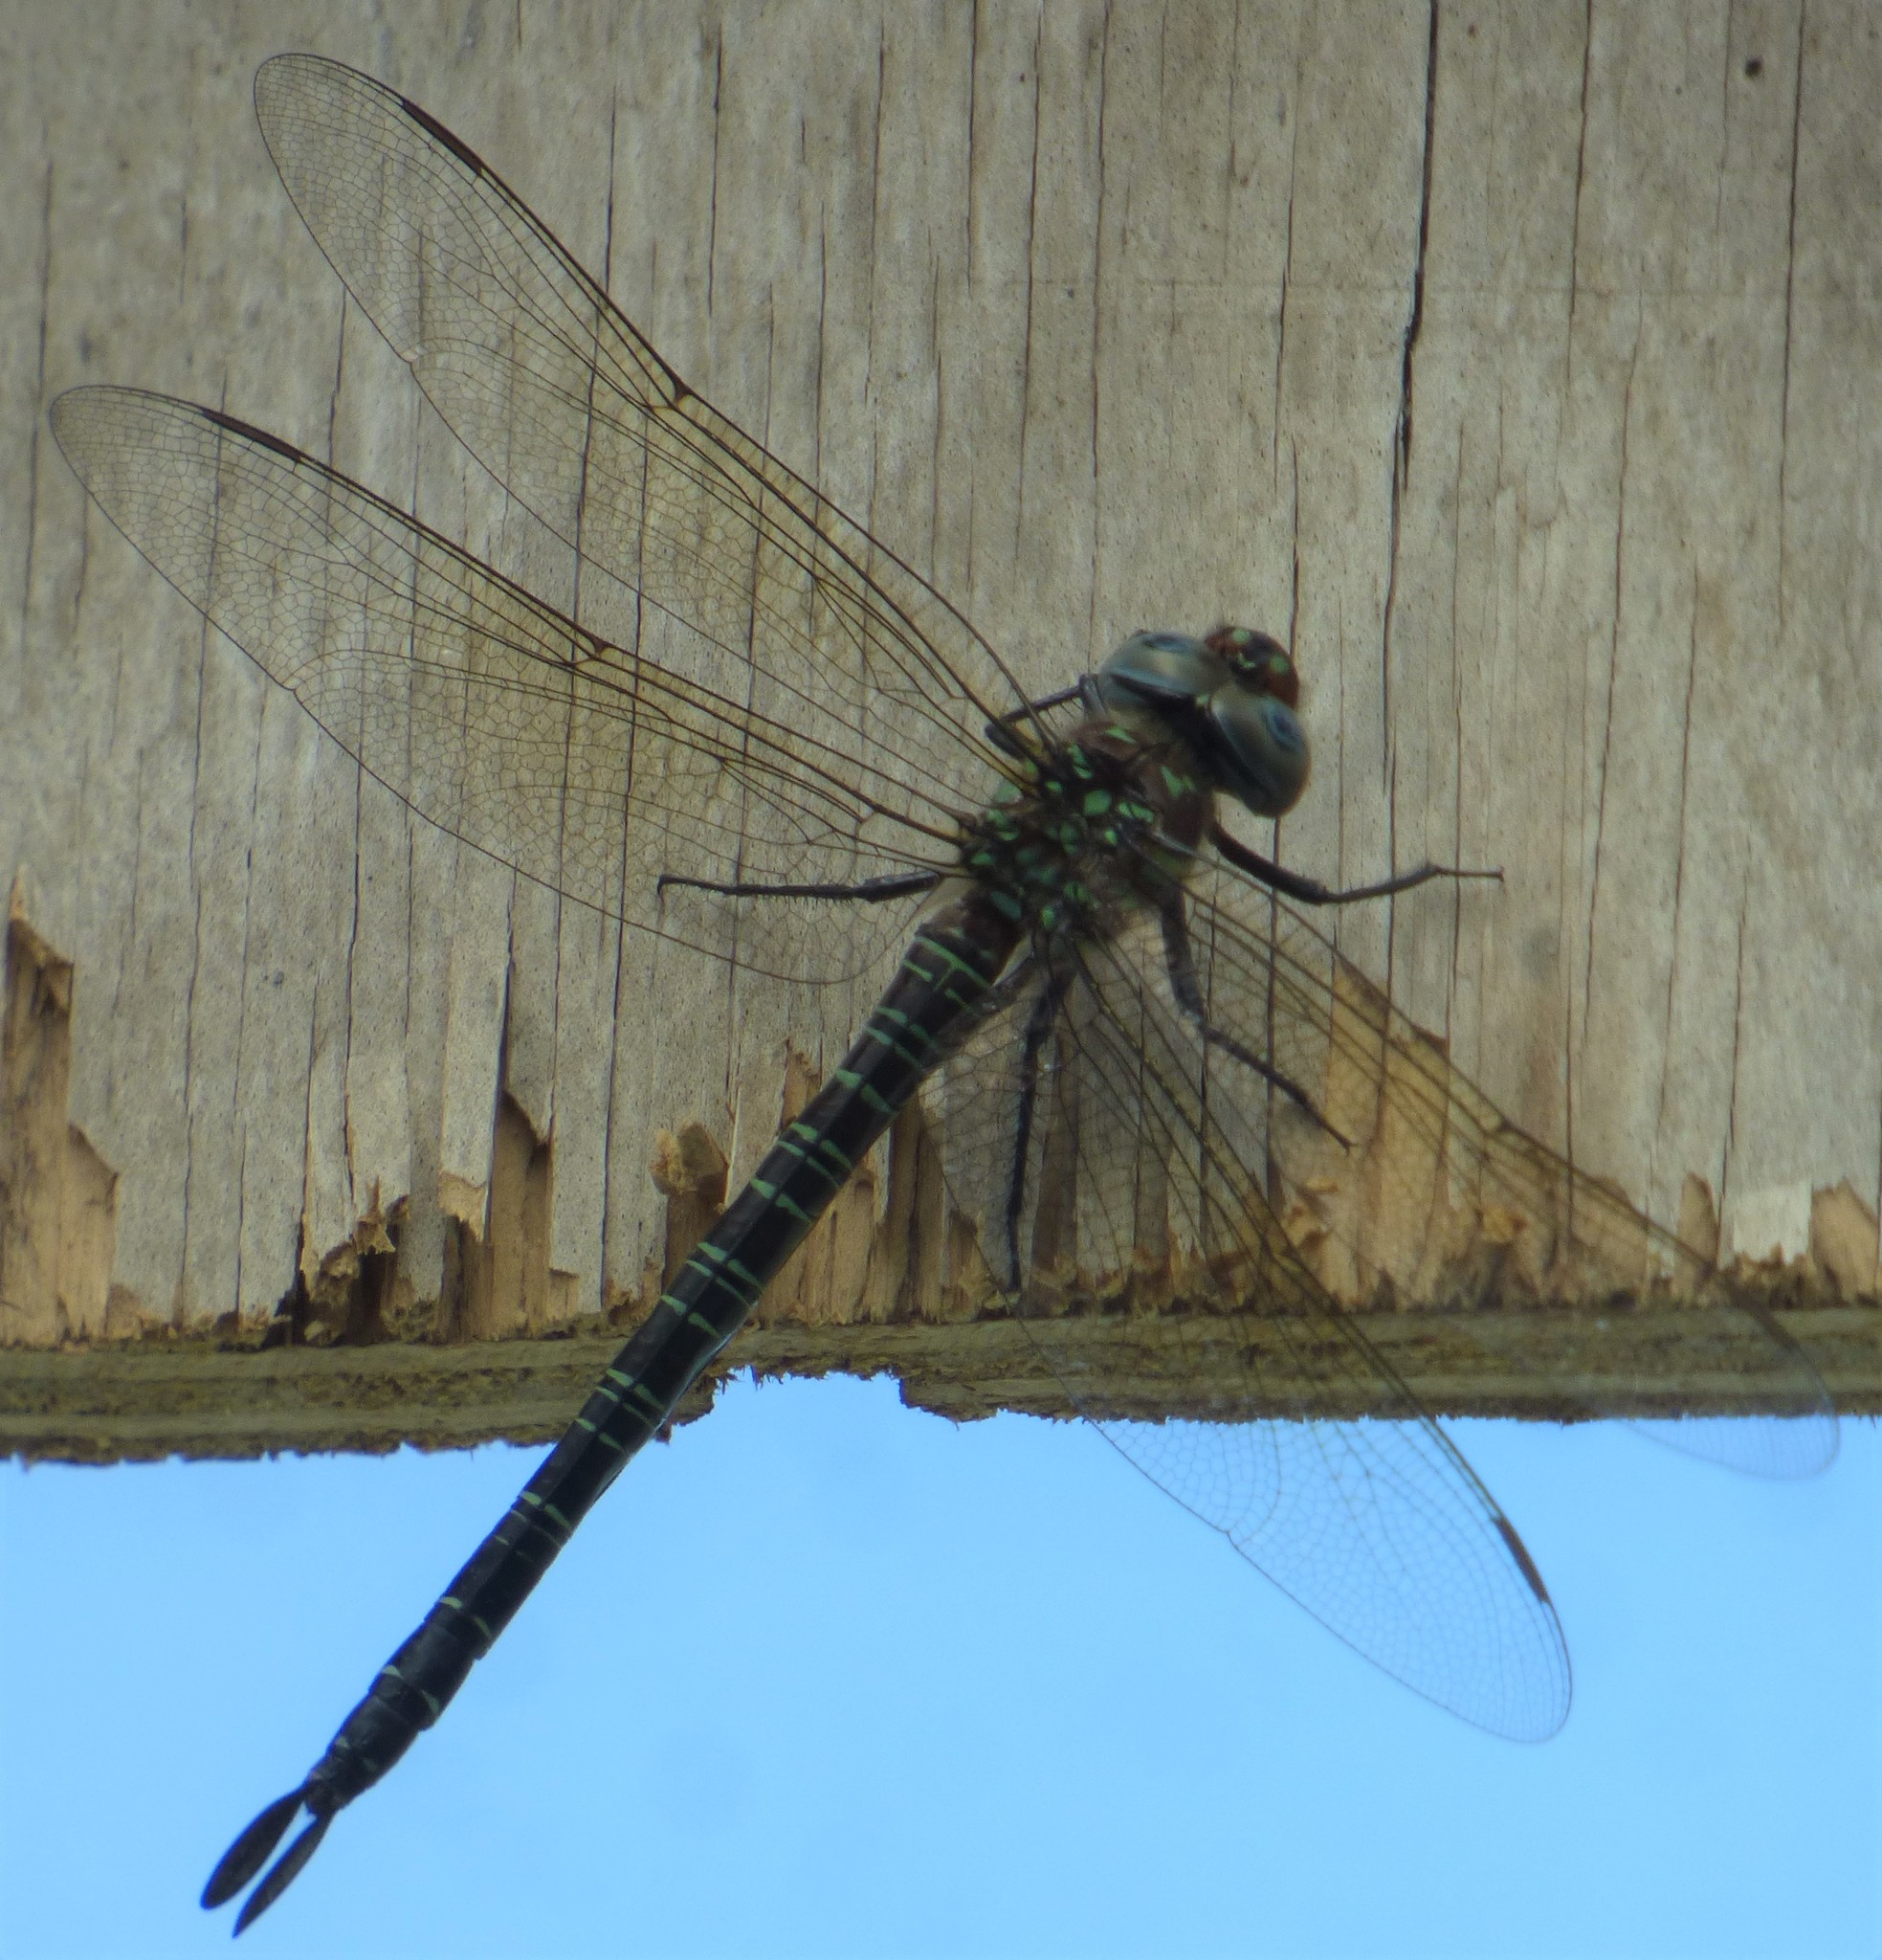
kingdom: Animalia
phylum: Arthropoda
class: Insecta
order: Odonata
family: Aeshnidae
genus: Epiaeschna
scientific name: Epiaeschna heros
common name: Swamp darner
